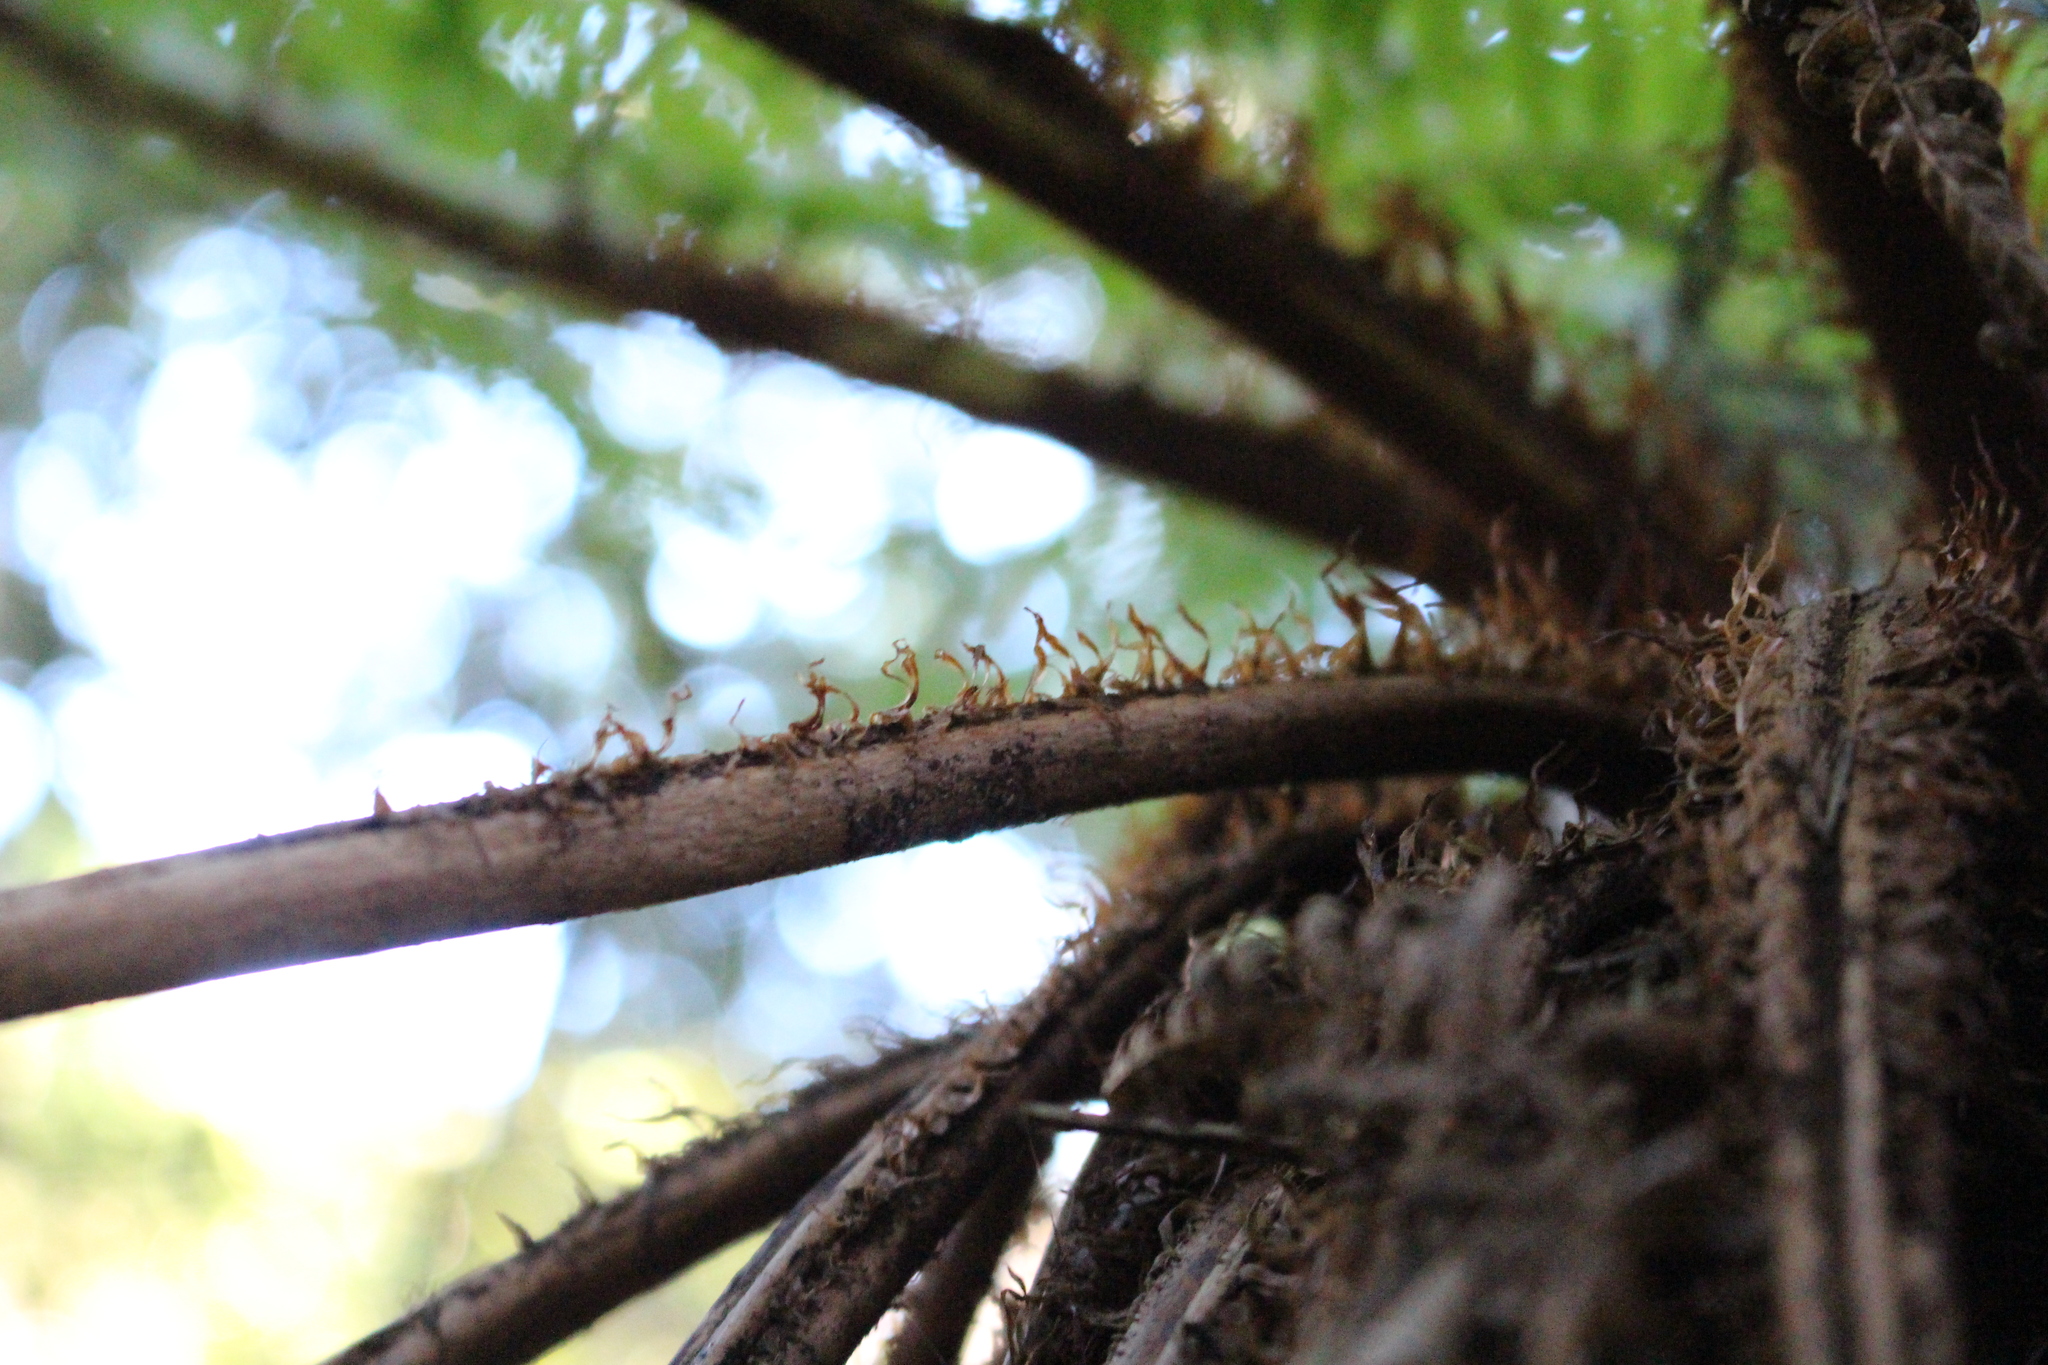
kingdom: Plantae
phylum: Tracheophyta
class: Polypodiopsida
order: Cyatheales
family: Cyatheaceae
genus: Alsophila
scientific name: Alsophila smithii
